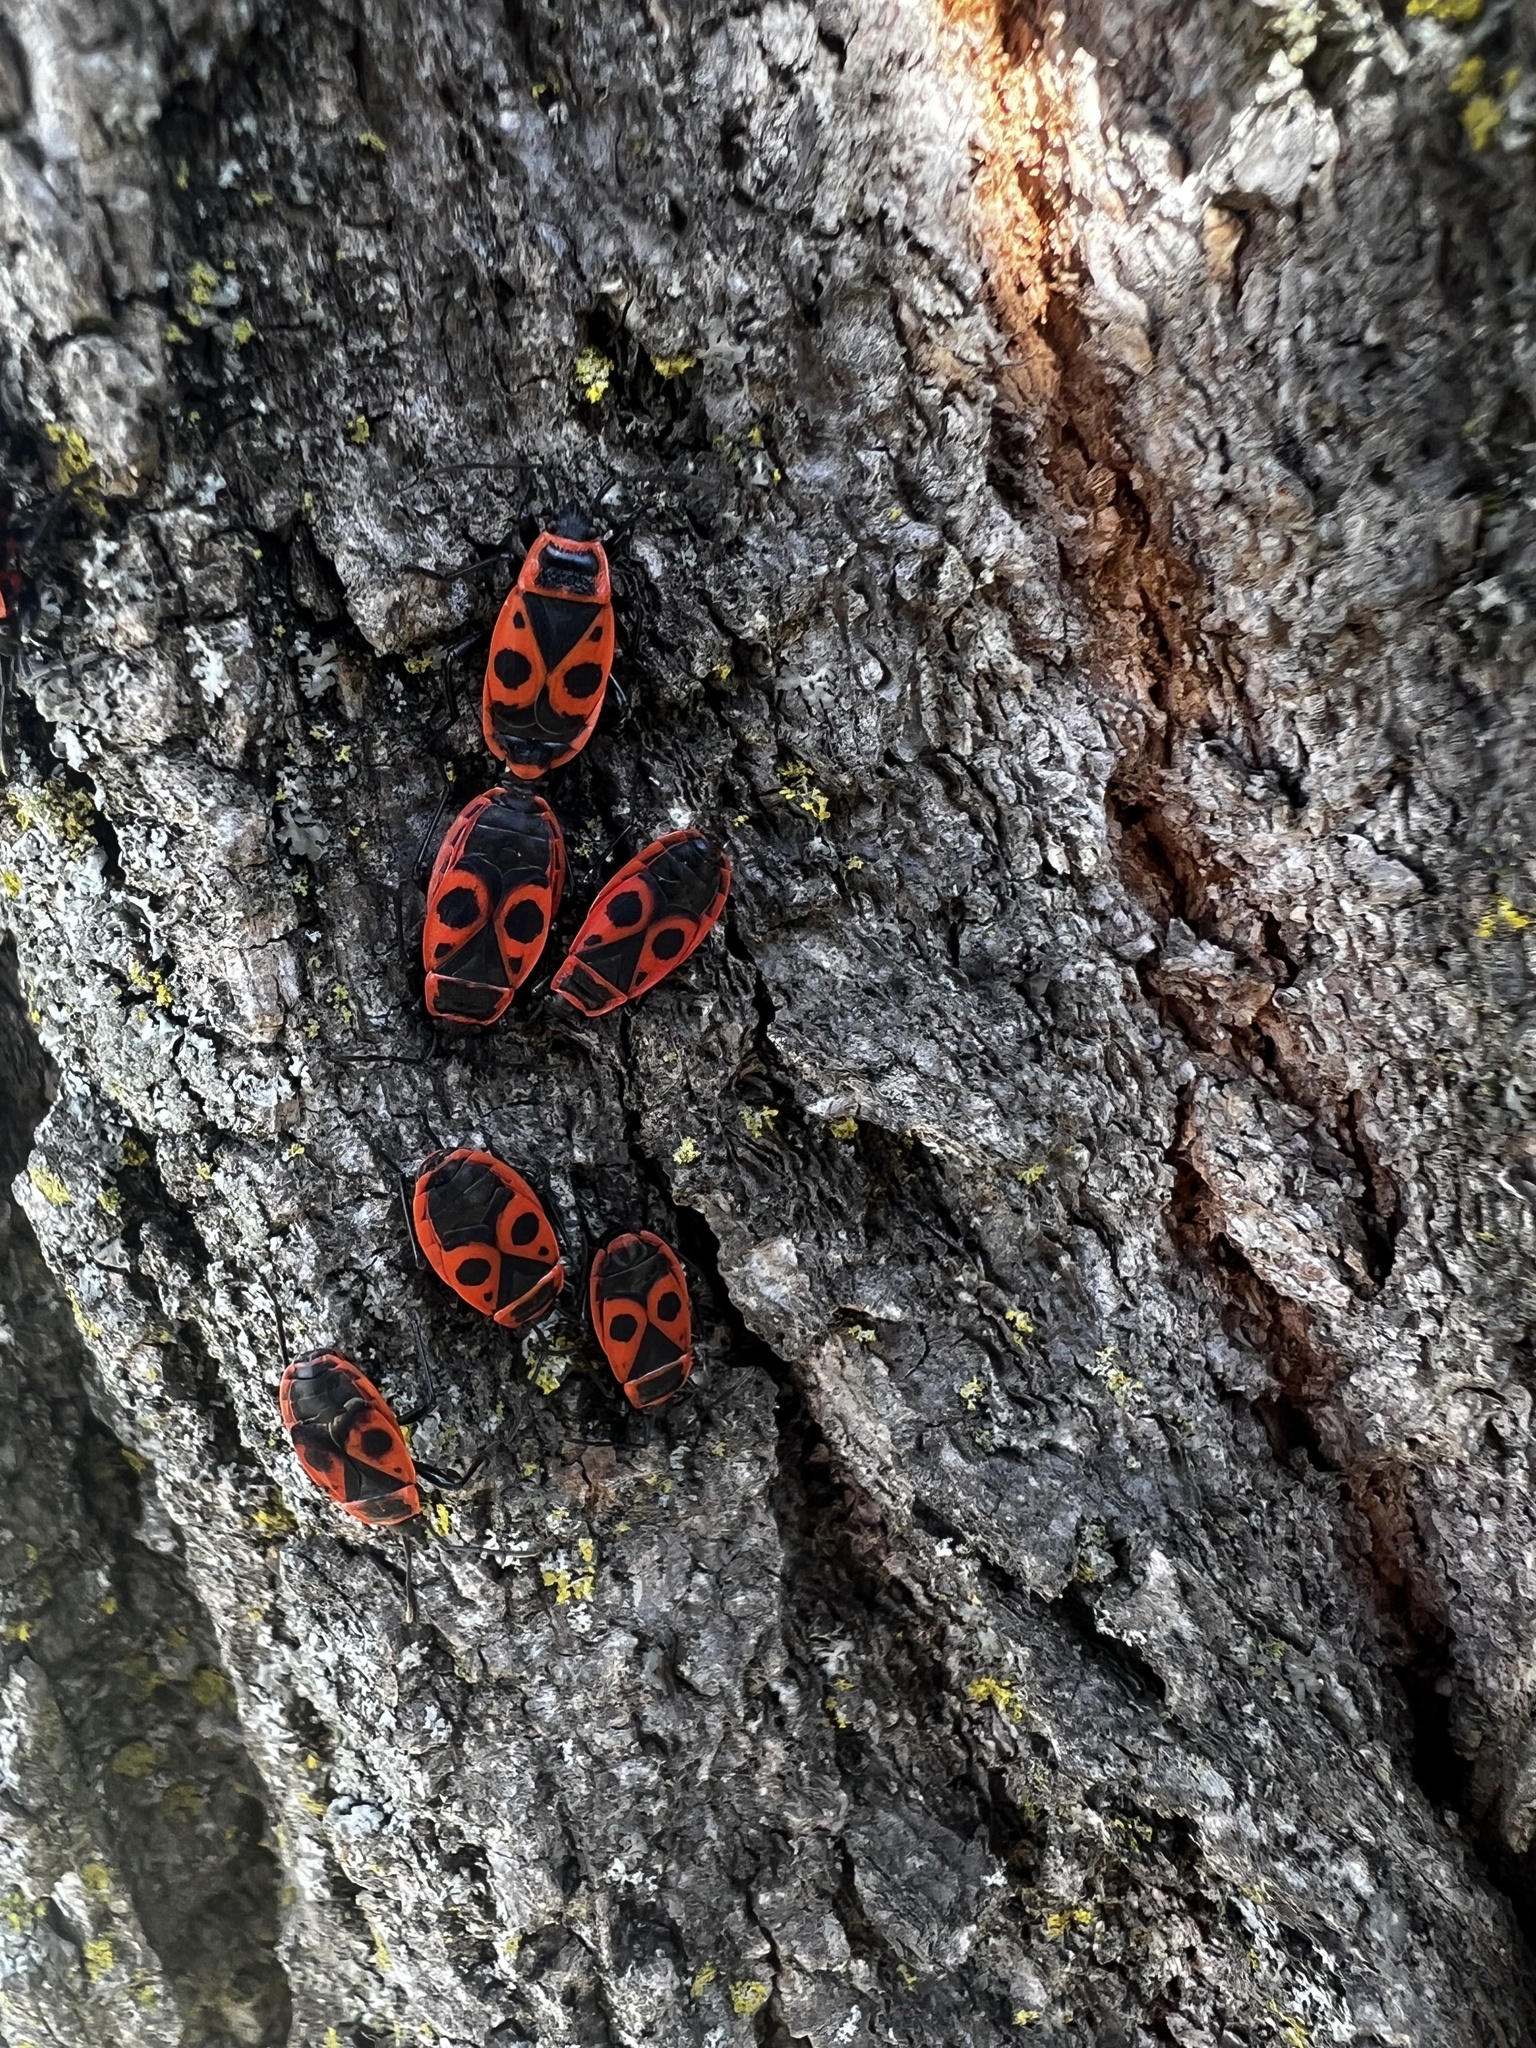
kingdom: Animalia
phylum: Arthropoda
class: Insecta
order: Hemiptera
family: Pyrrhocoridae
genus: Pyrrhocoris
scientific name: Pyrrhocoris apterus
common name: Firebug
